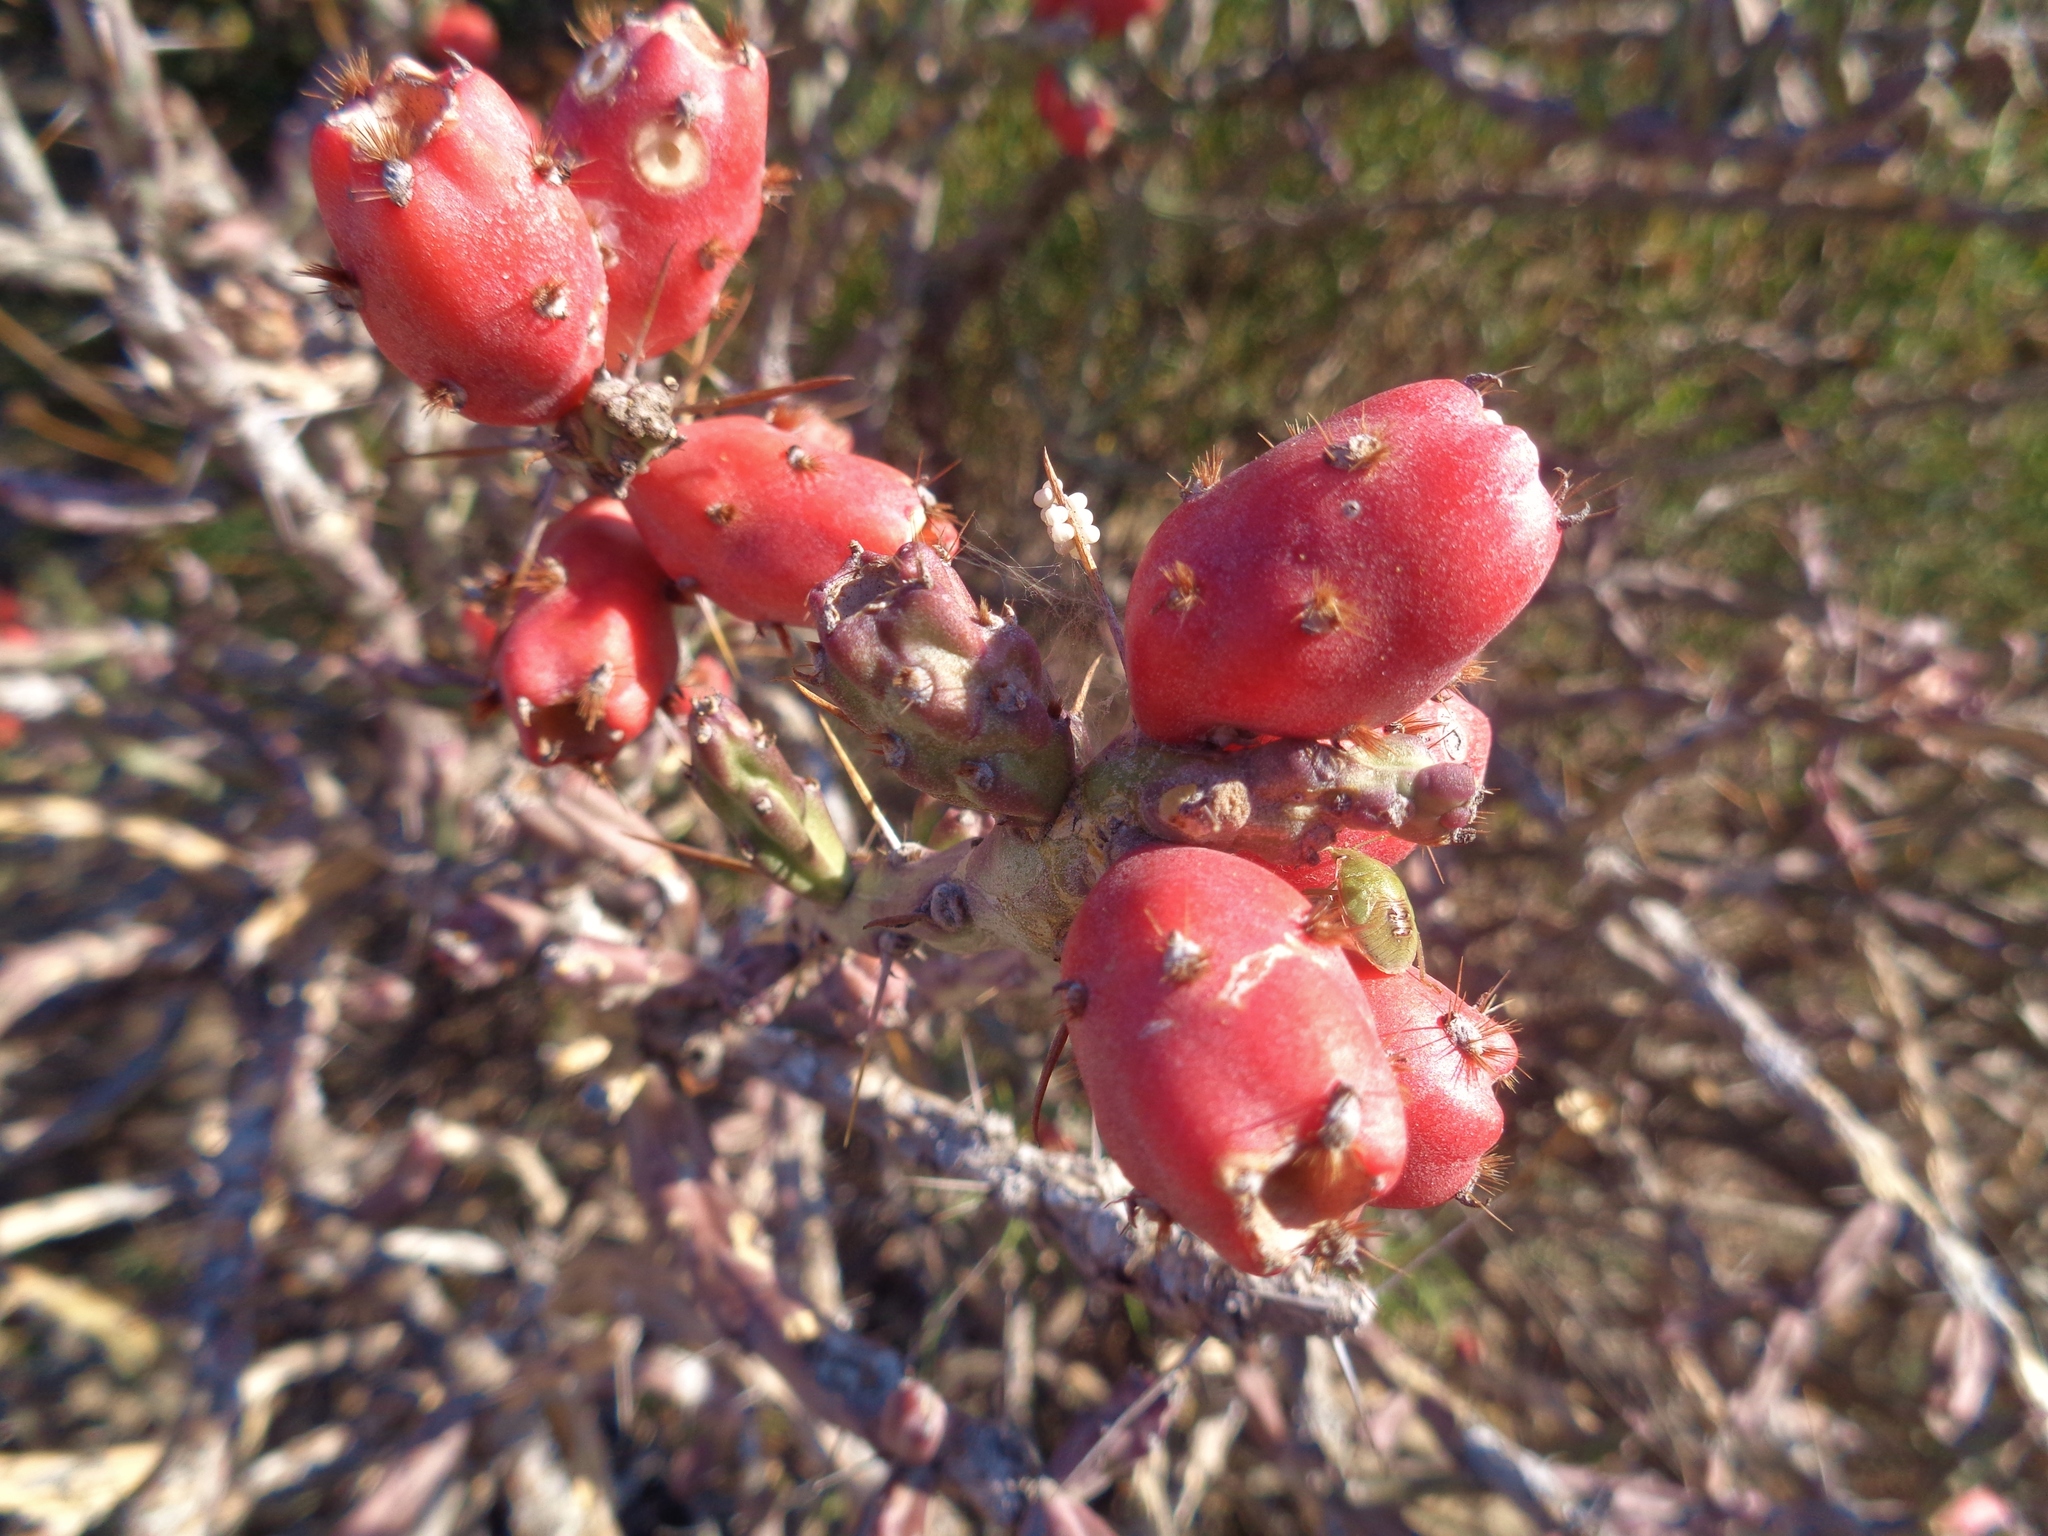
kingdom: Plantae
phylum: Tracheophyta
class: Magnoliopsida
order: Caryophyllales
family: Cactaceae
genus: Cylindropuntia
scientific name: Cylindropuntia leptocaulis
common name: Christmas cactus
